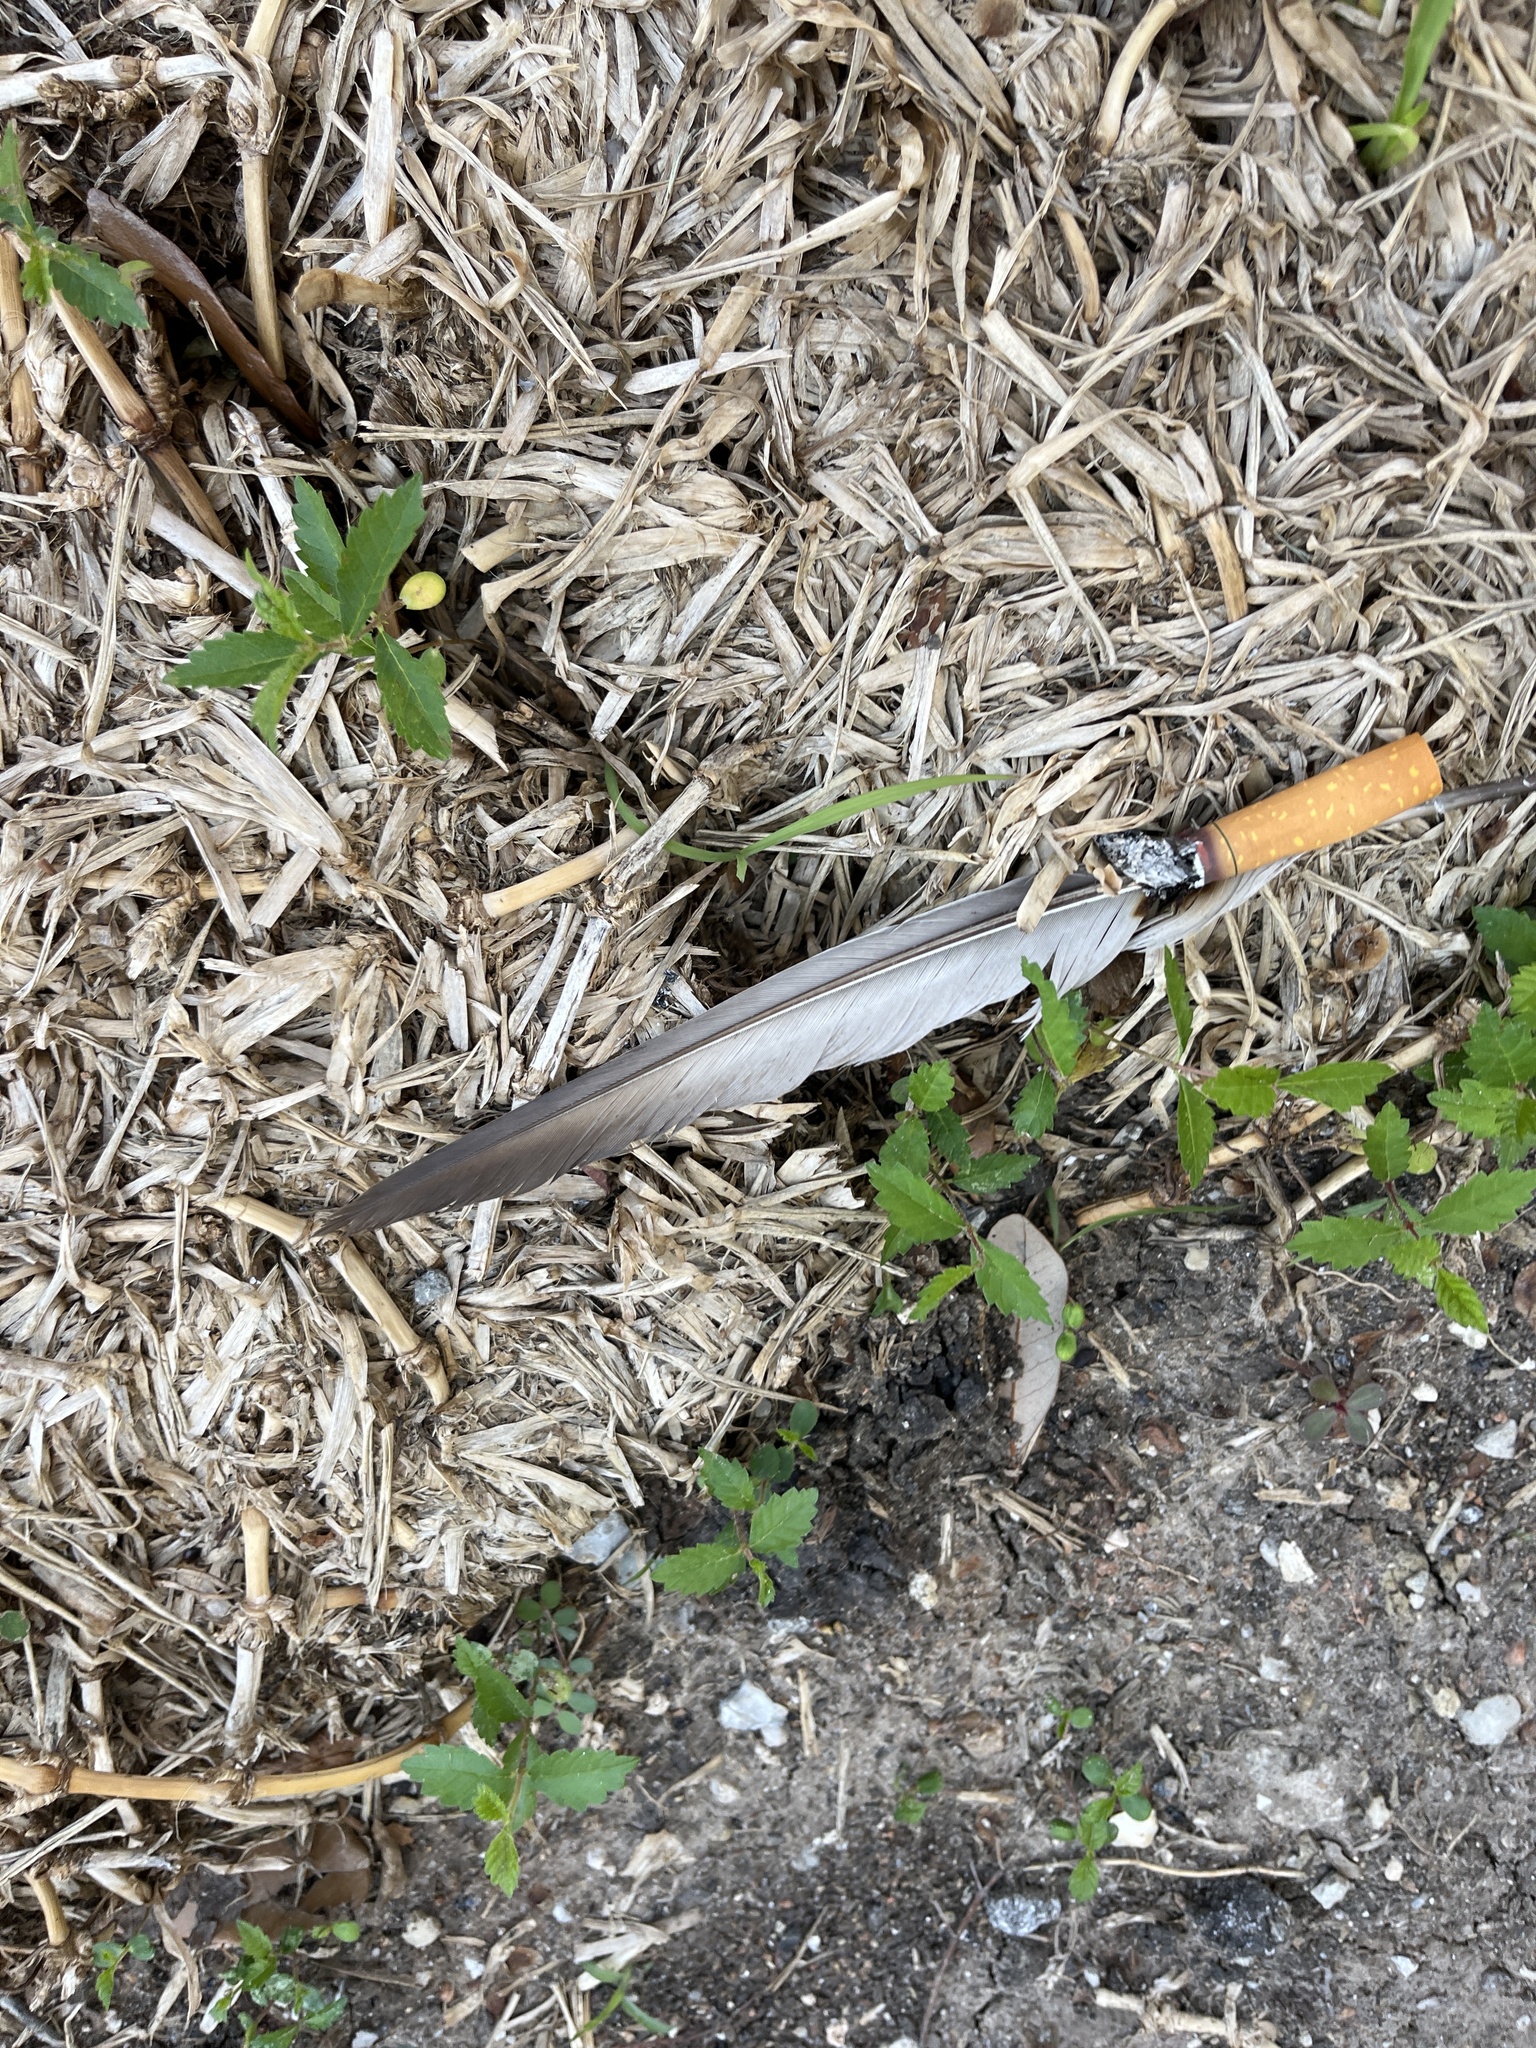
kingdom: Animalia
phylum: Chordata
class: Aves
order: Columbiformes
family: Columbidae
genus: Columba
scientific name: Columba livia
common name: Rock pigeon
